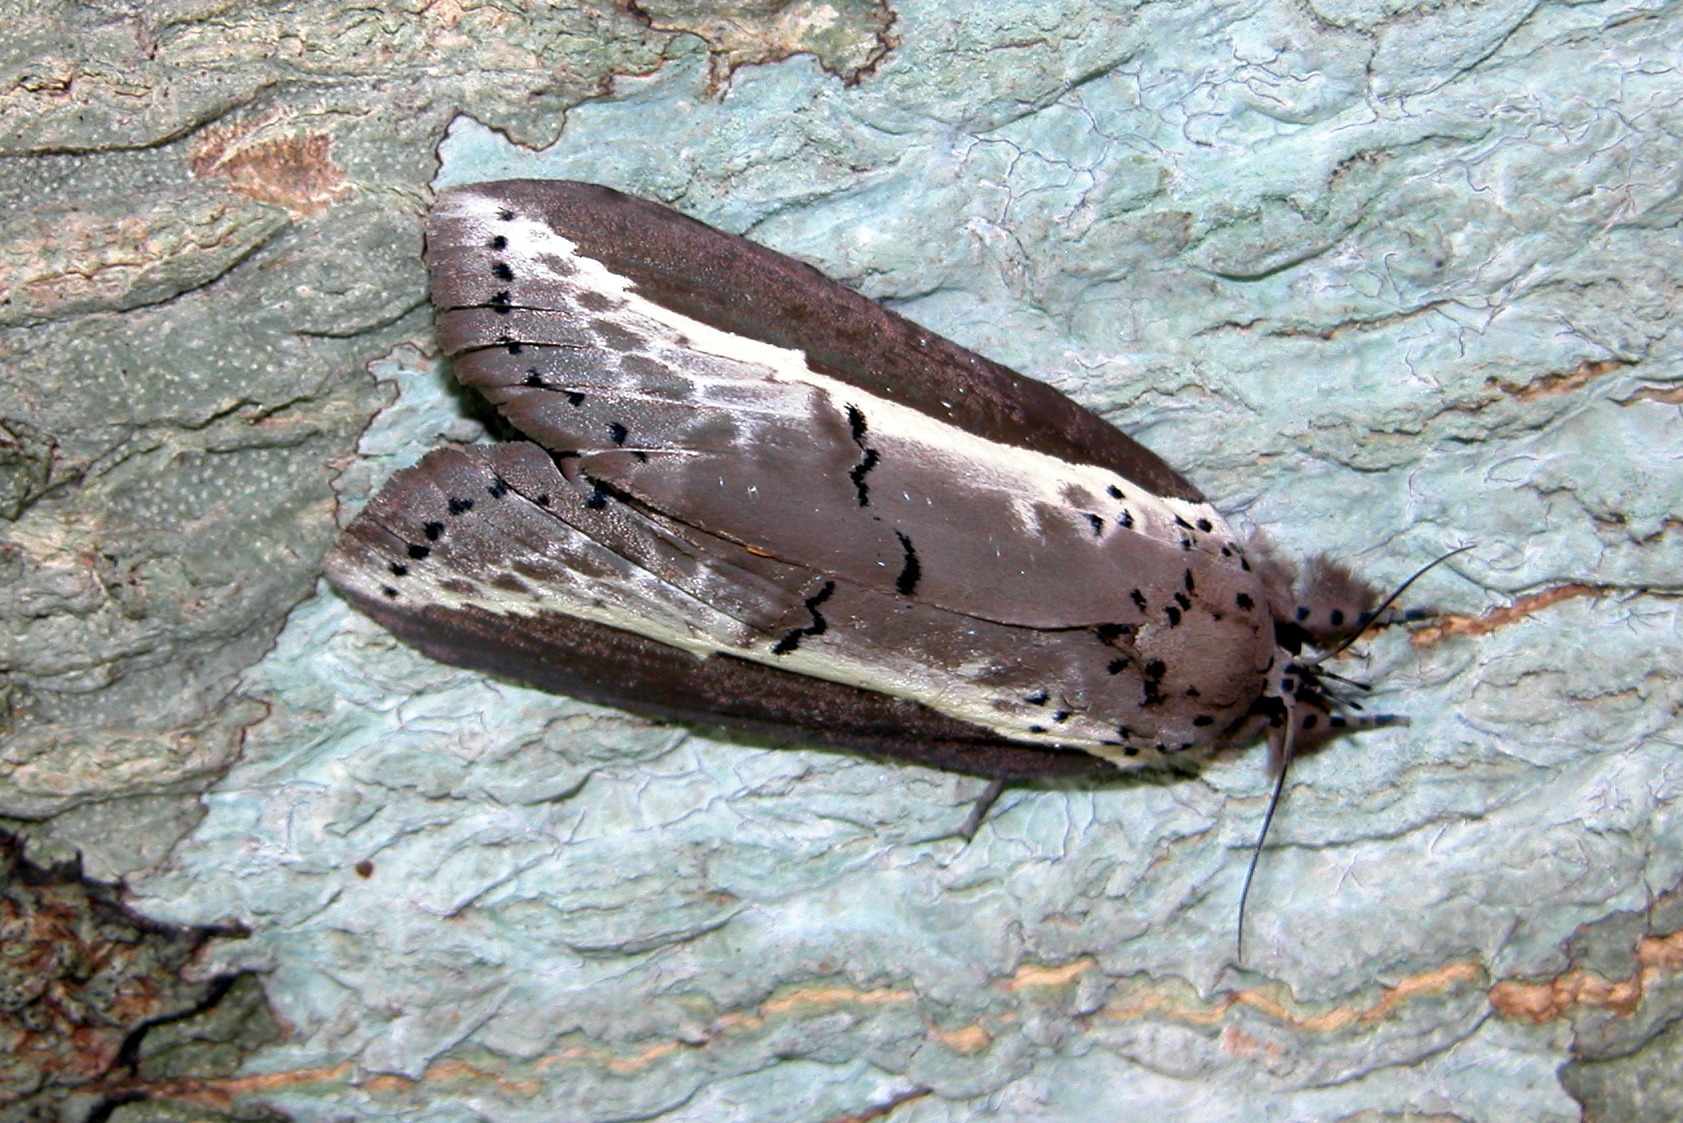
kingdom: Animalia
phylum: Arthropoda
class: Insecta
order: Lepidoptera
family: Nolidae
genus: Eligma
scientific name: Eligma narcissus
